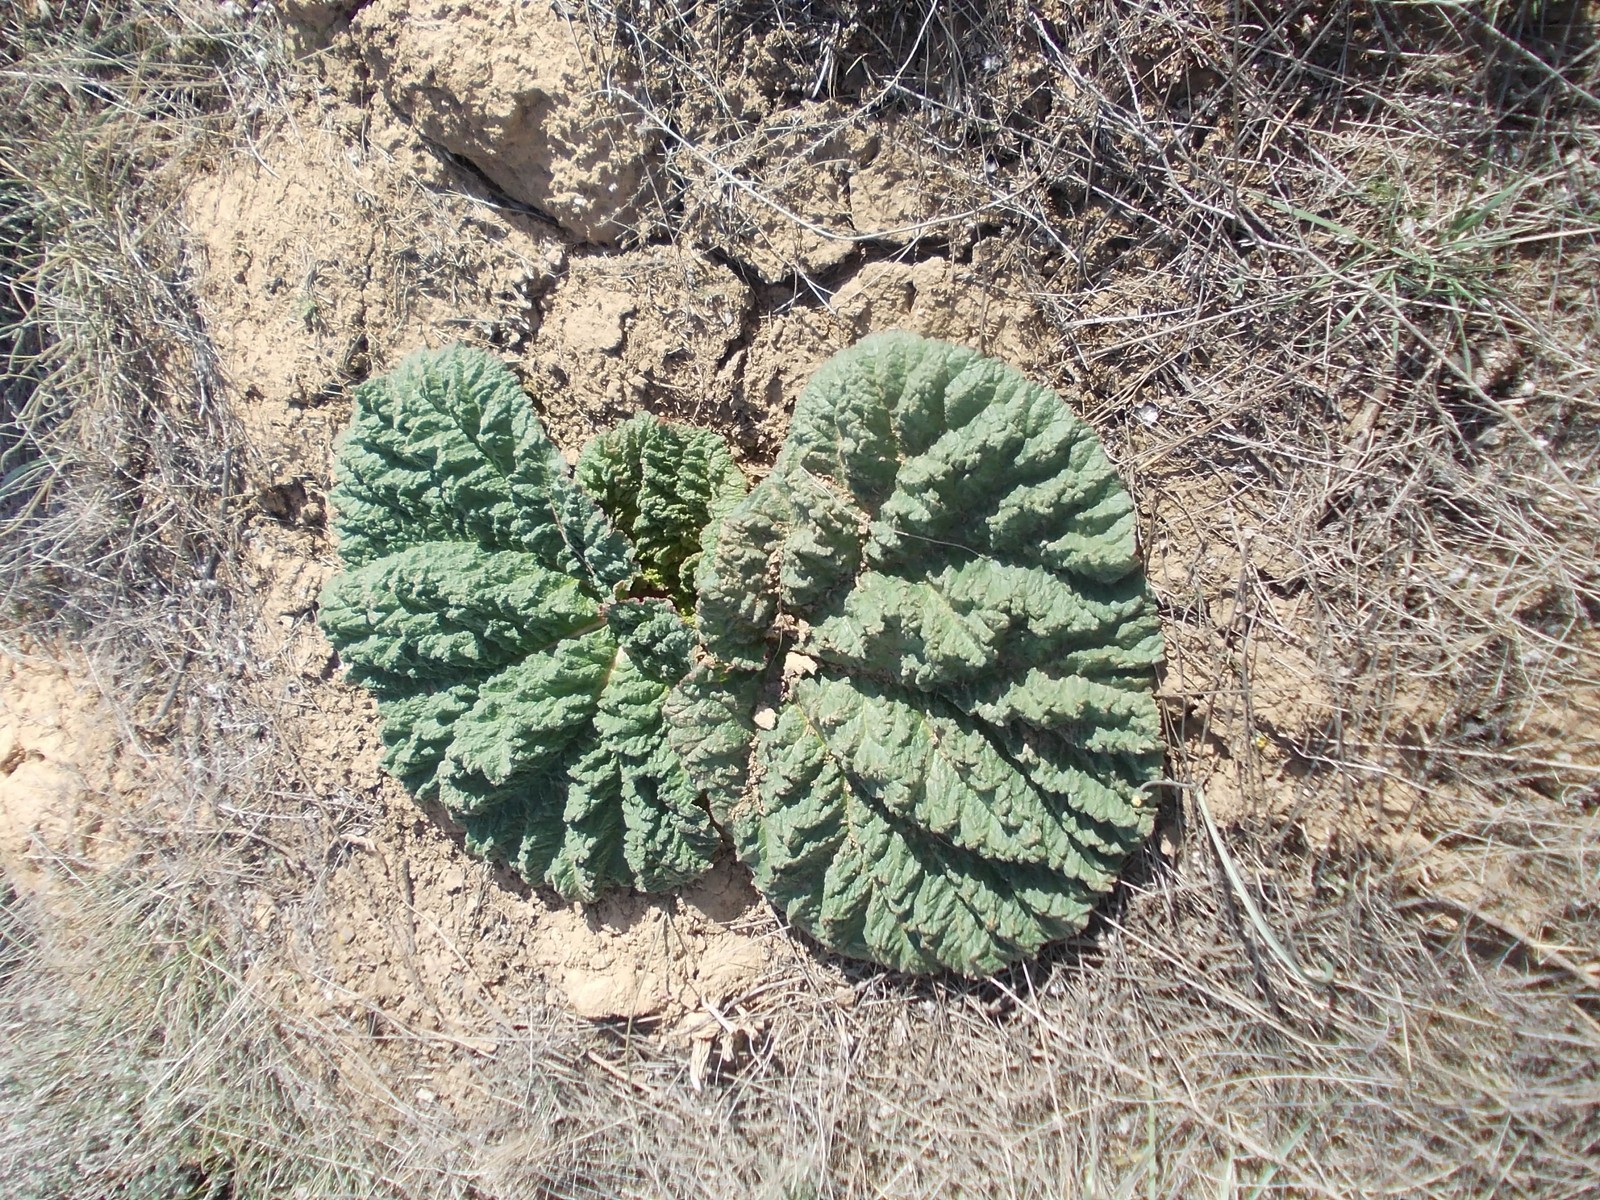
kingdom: Plantae
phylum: Tracheophyta
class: Magnoliopsida
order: Caryophyllales
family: Polygonaceae
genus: Rheum
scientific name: Rheum tataricum
